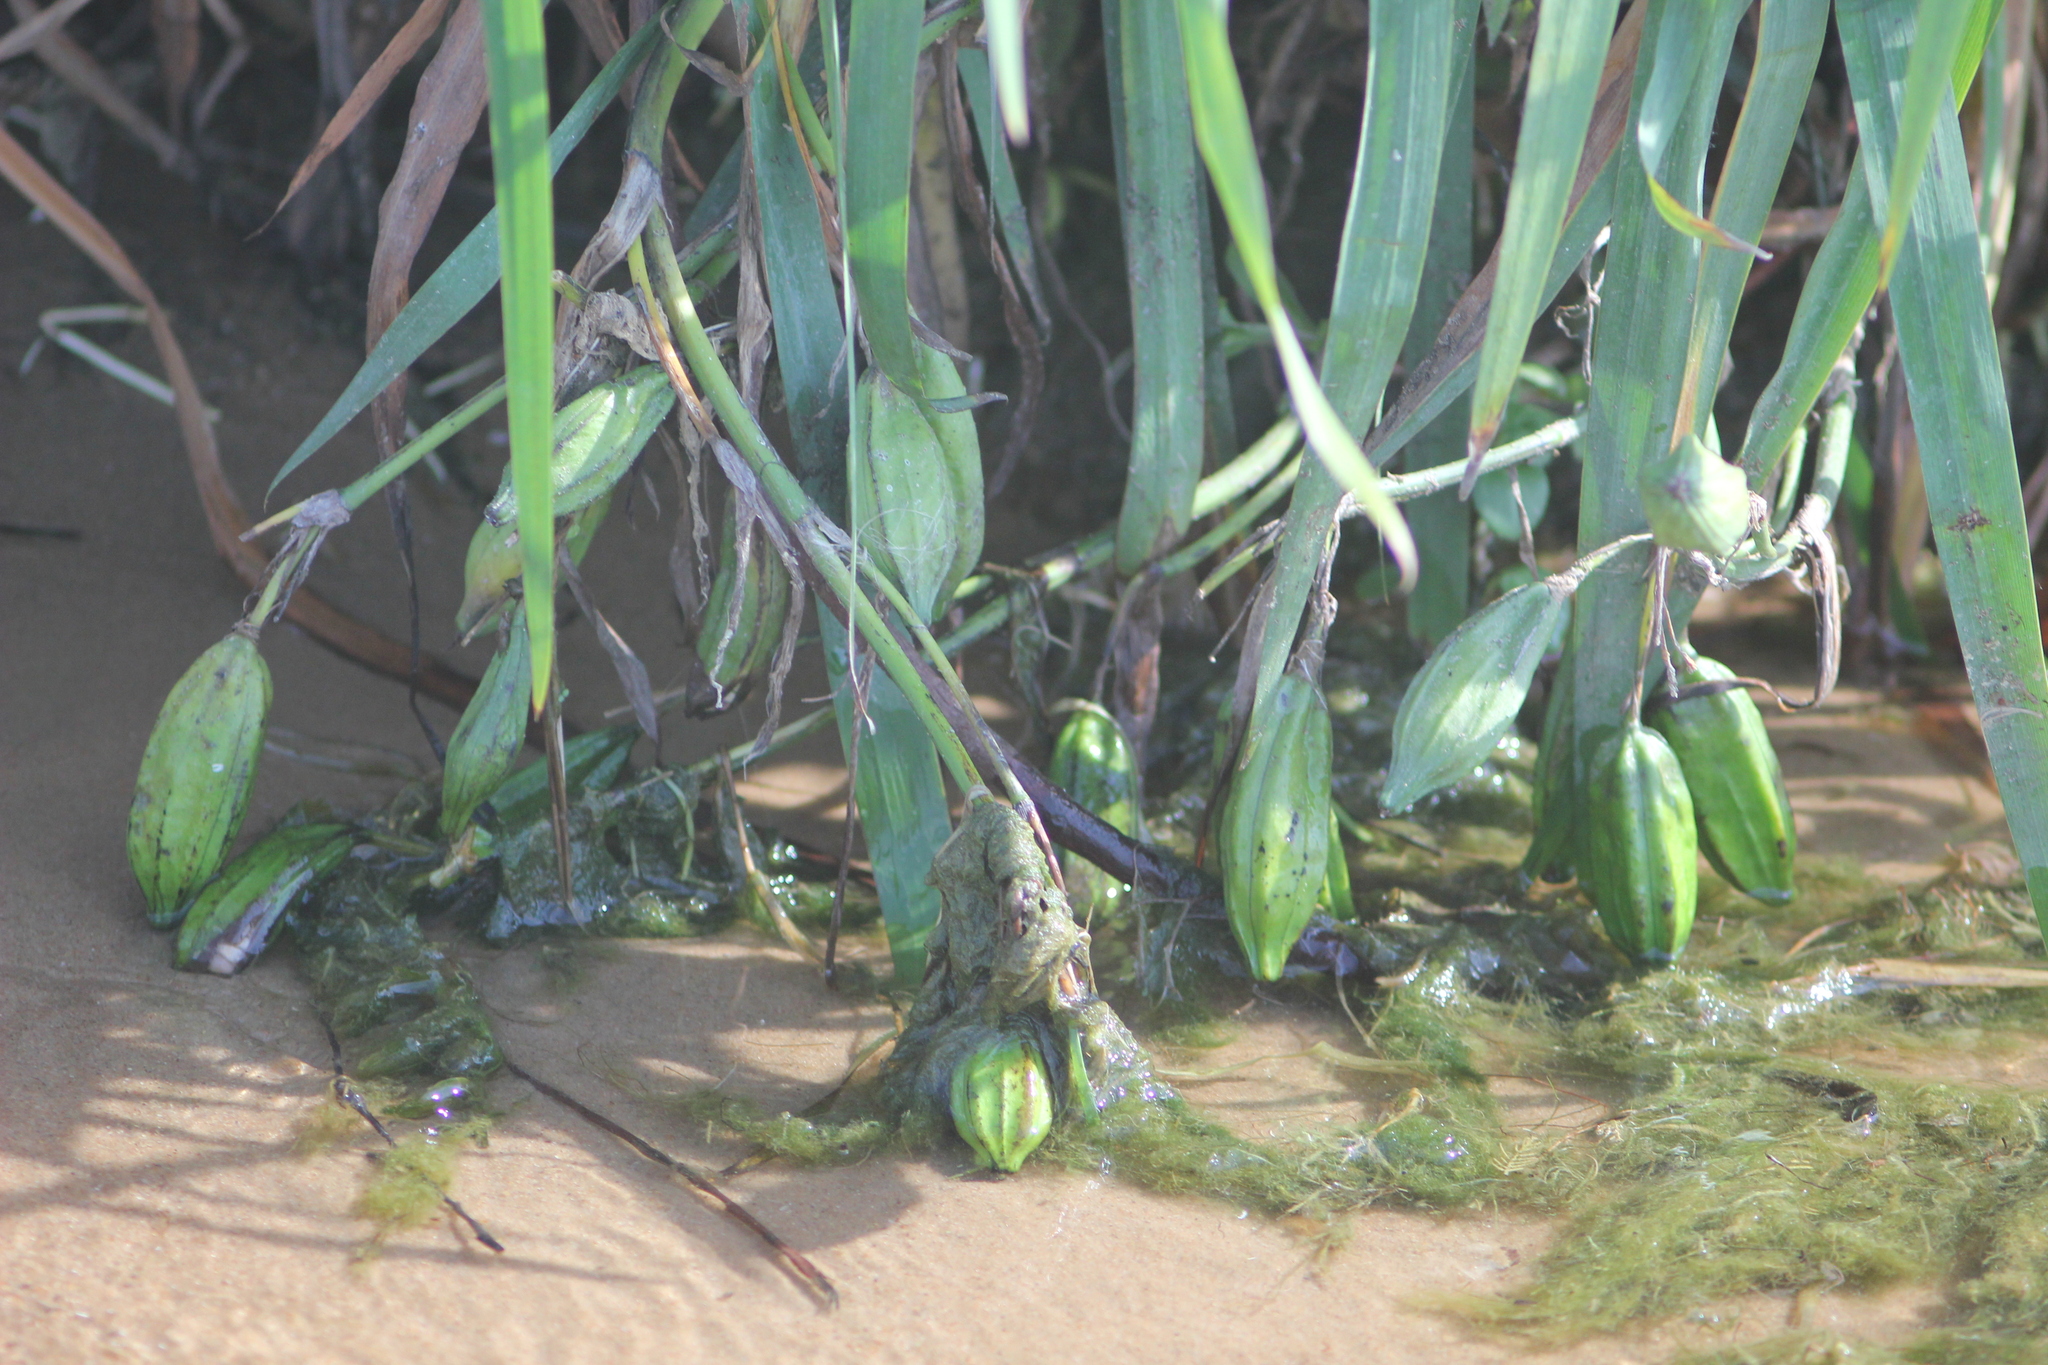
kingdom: Plantae
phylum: Tracheophyta
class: Liliopsida
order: Asparagales
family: Iridaceae
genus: Iris
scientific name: Iris pseudacorus
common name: Yellow flag
